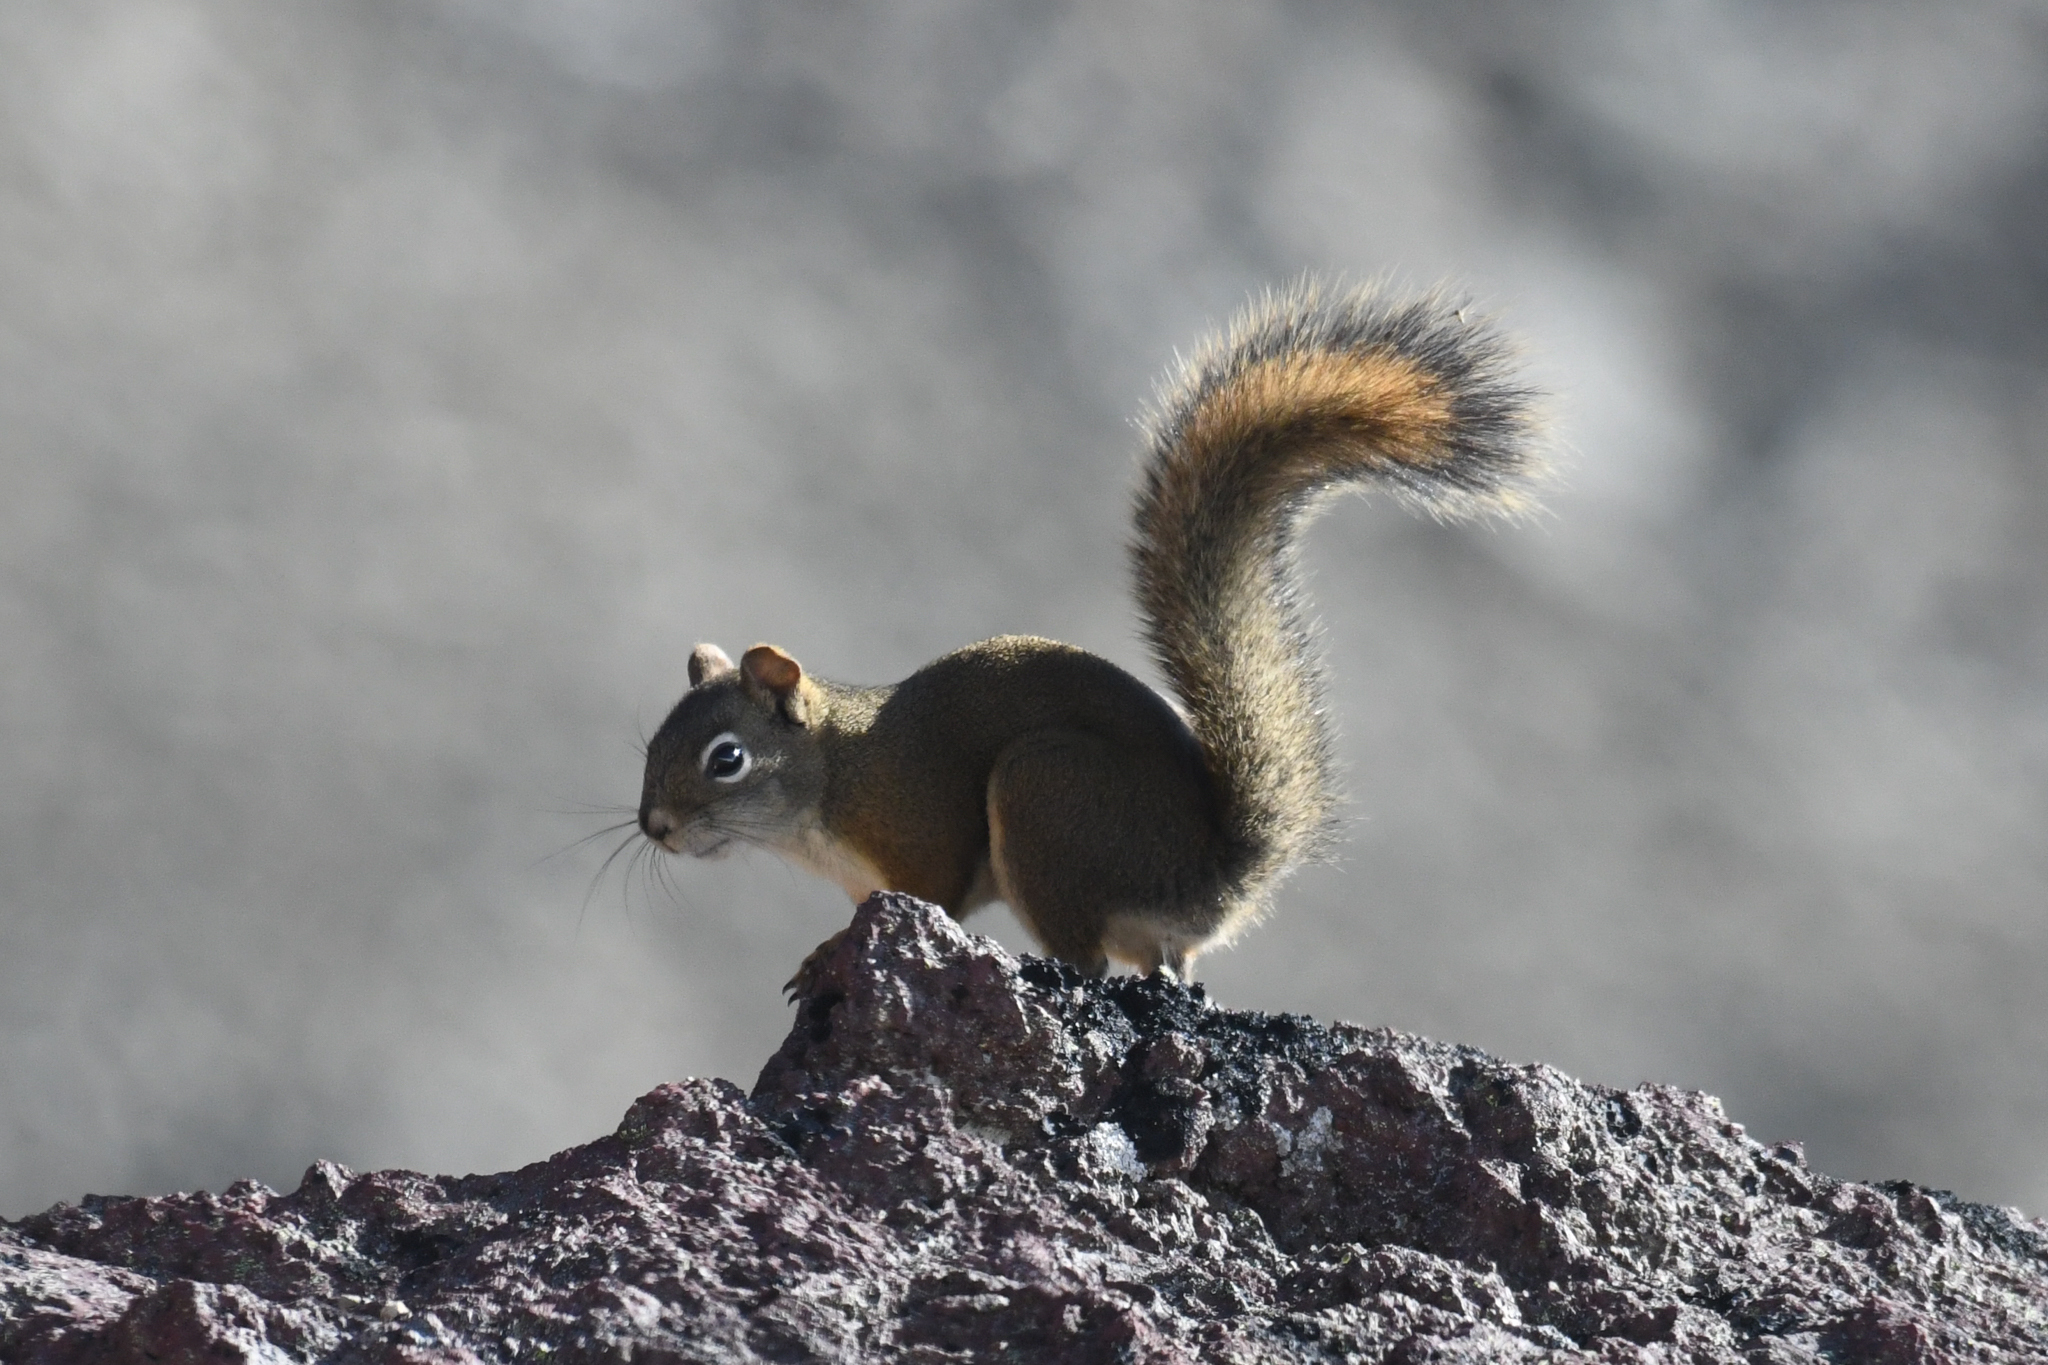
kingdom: Animalia
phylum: Chordata
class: Mammalia
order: Rodentia
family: Sciuridae
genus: Tamiasciurus
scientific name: Tamiasciurus hudsonicus
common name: Red squirrel
